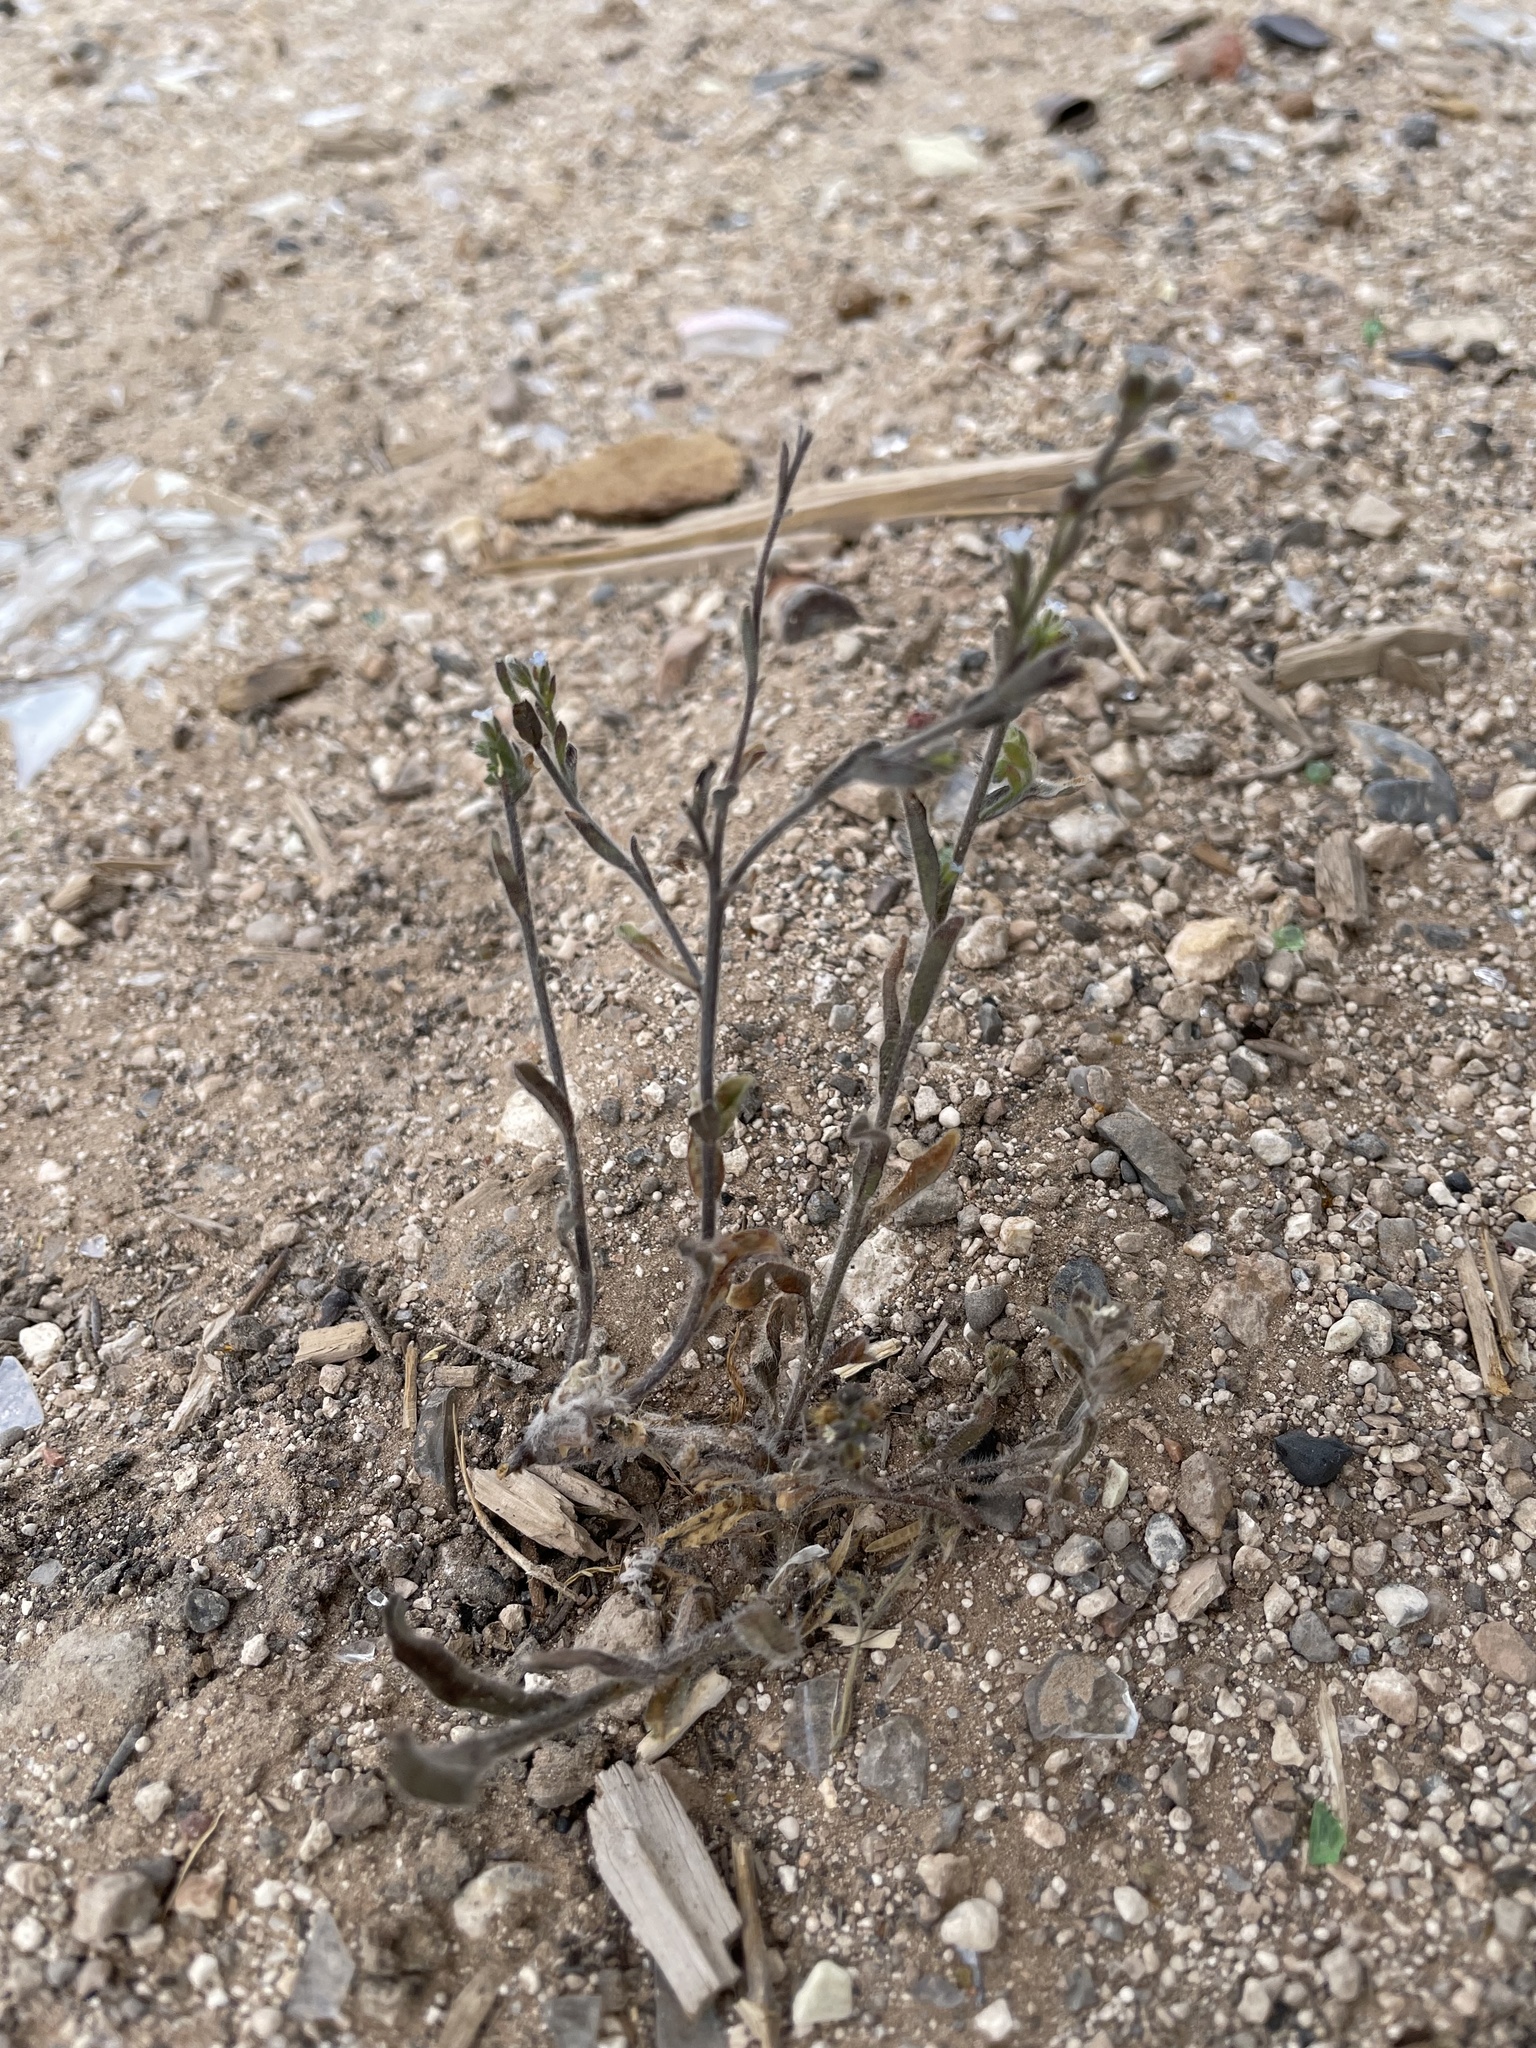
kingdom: Plantae
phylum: Tracheophyta
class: Magnoliopsida
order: Boraginales
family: Boraginaceae
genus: Lappula
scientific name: Lappula occidentalis
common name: Western stickseed
